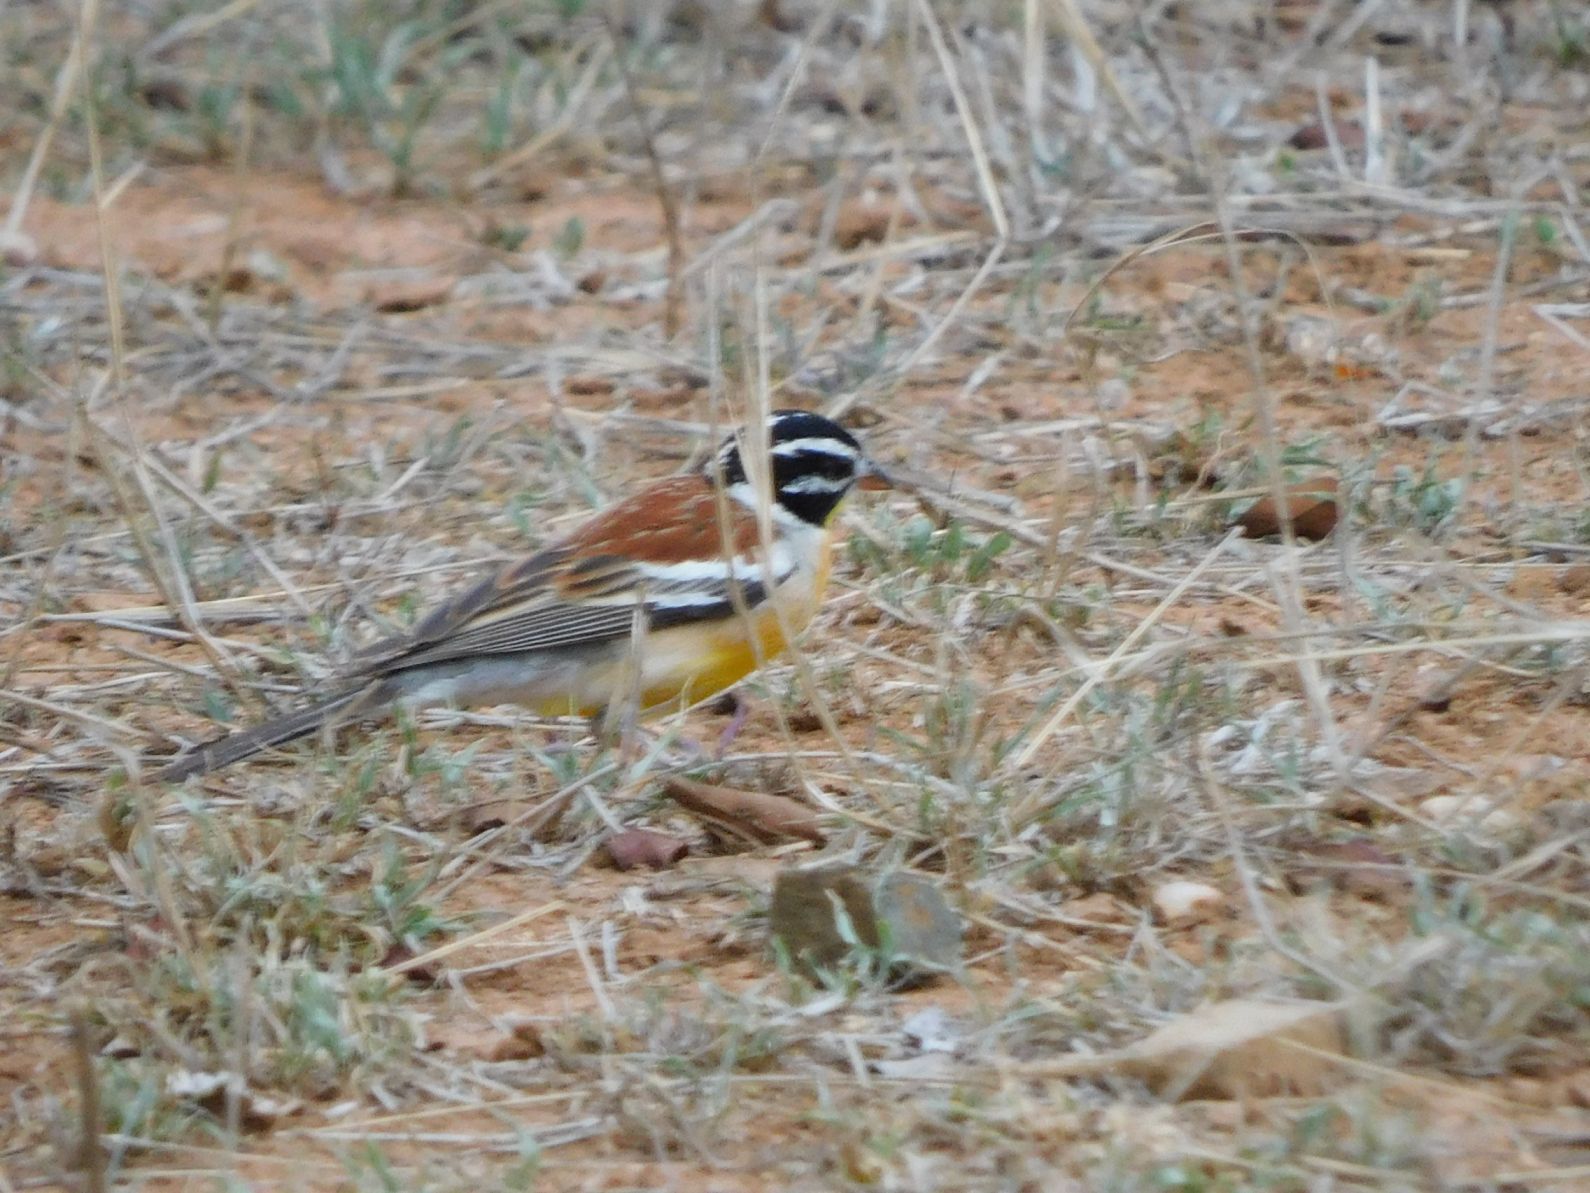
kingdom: Animalia
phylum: Chordata
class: Aves
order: Passeriformes
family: Emberizidae
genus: Emberiza
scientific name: Emberiza flaviventris
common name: Golden-breasted bunting
